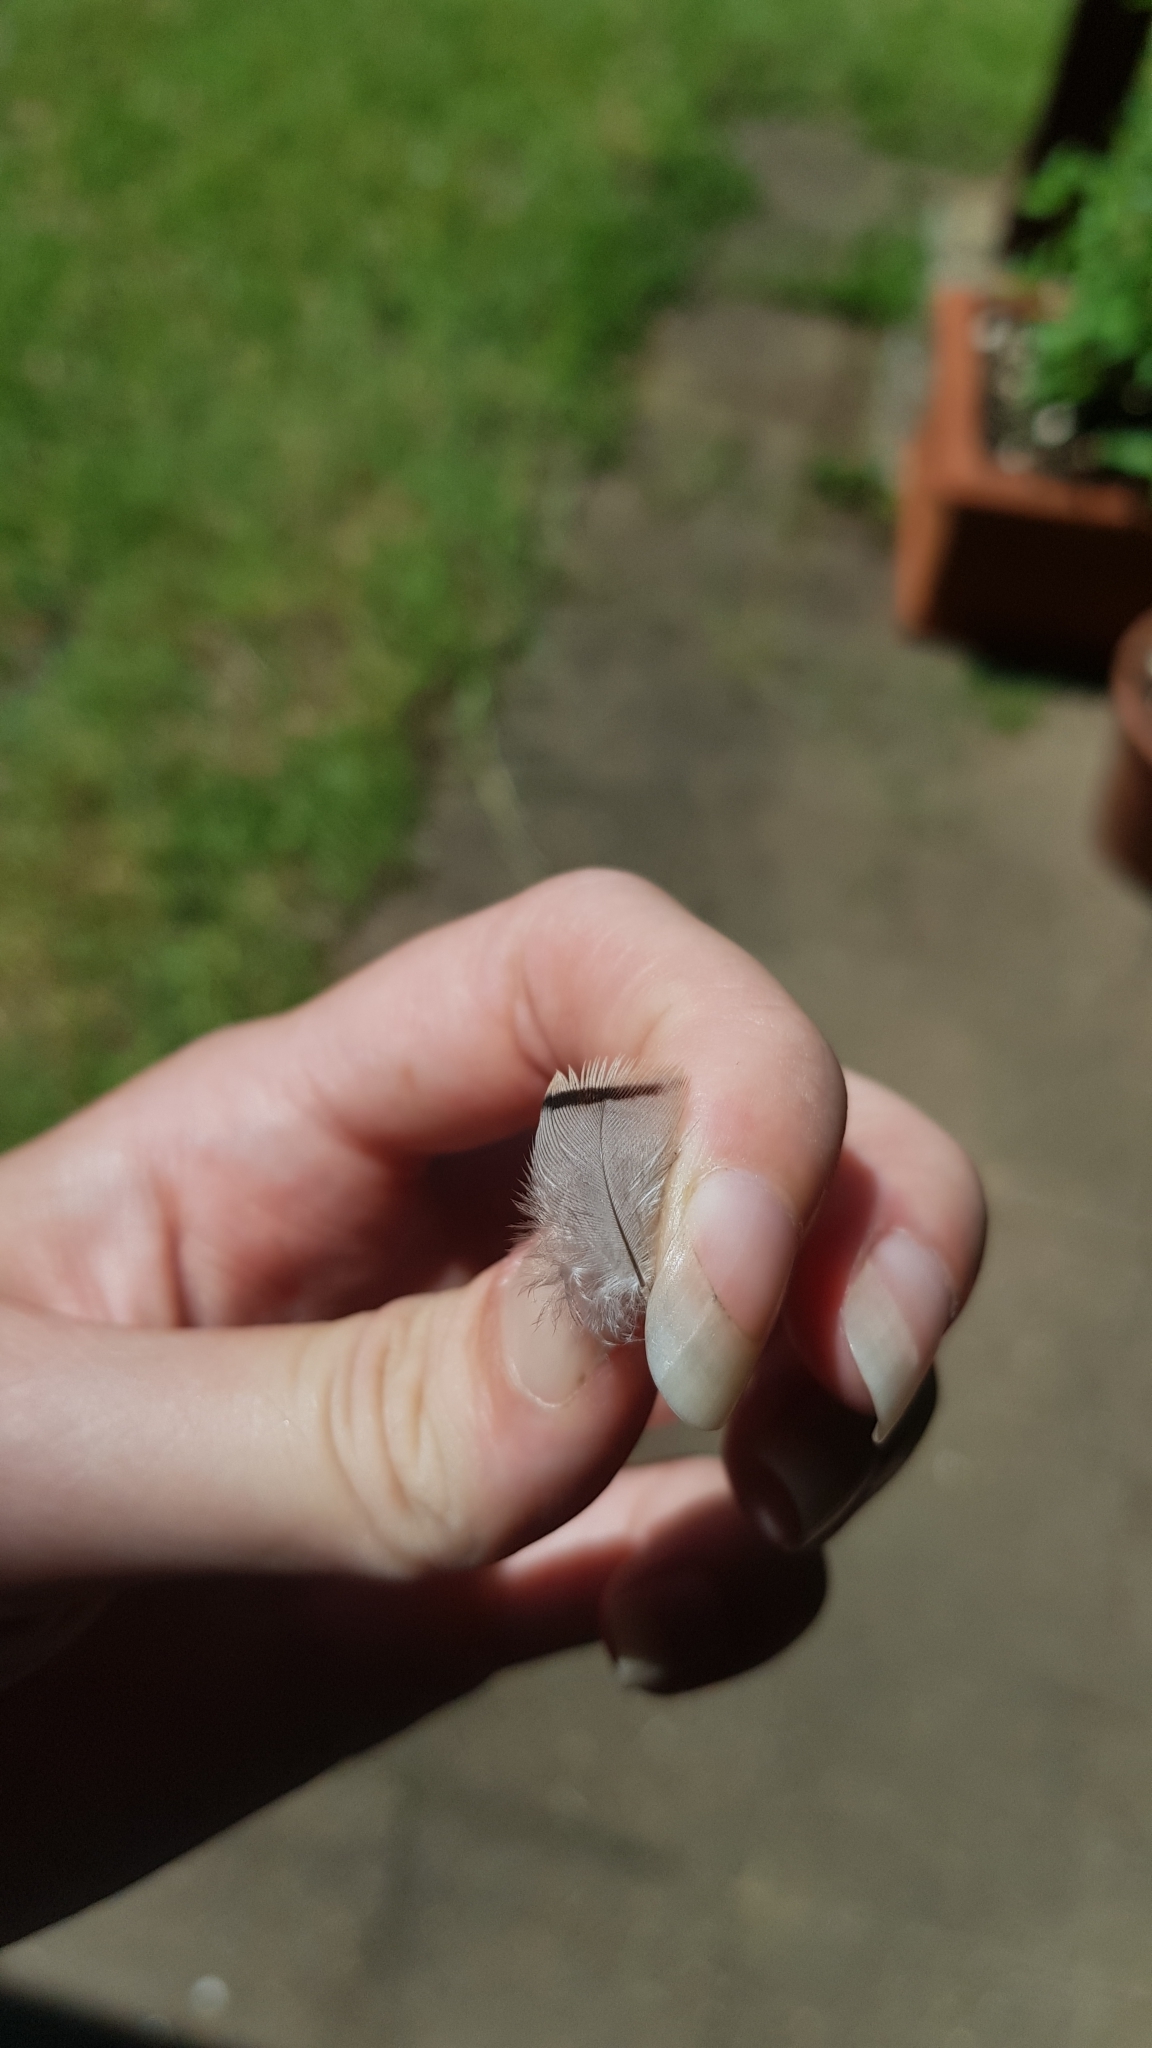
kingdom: Animalia
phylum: Chordata
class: Aves
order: Columbiformes
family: Columbidae
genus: Ocyphaps
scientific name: Ocyphaps lophotes
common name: Crested pigeon
